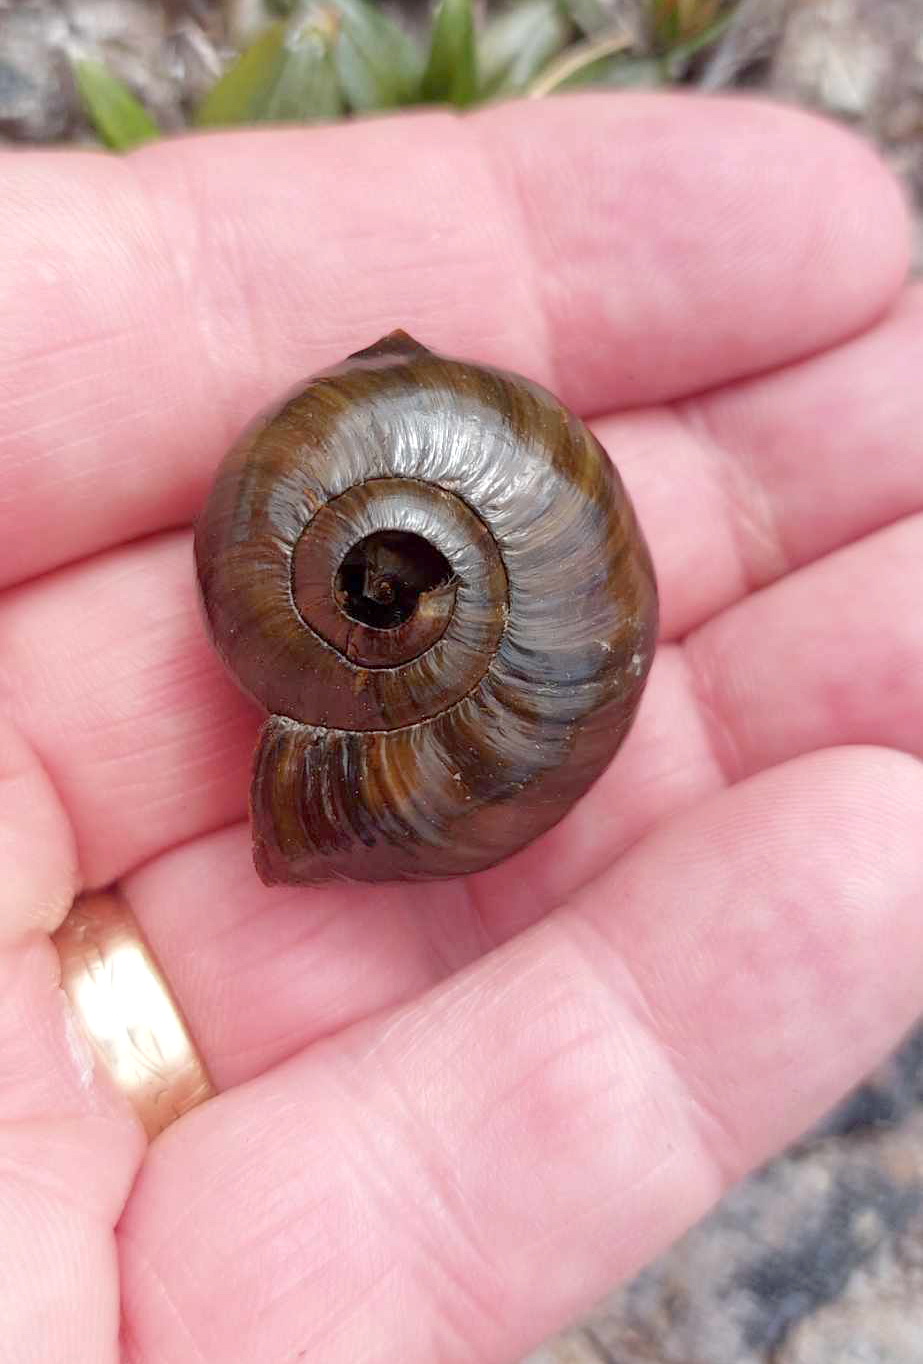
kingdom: Animalia
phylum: Mollusca
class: Gastropoda
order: Stylommatophora
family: Rhytididae
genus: Powelliphanta
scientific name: Powelliphanta patrickensis
